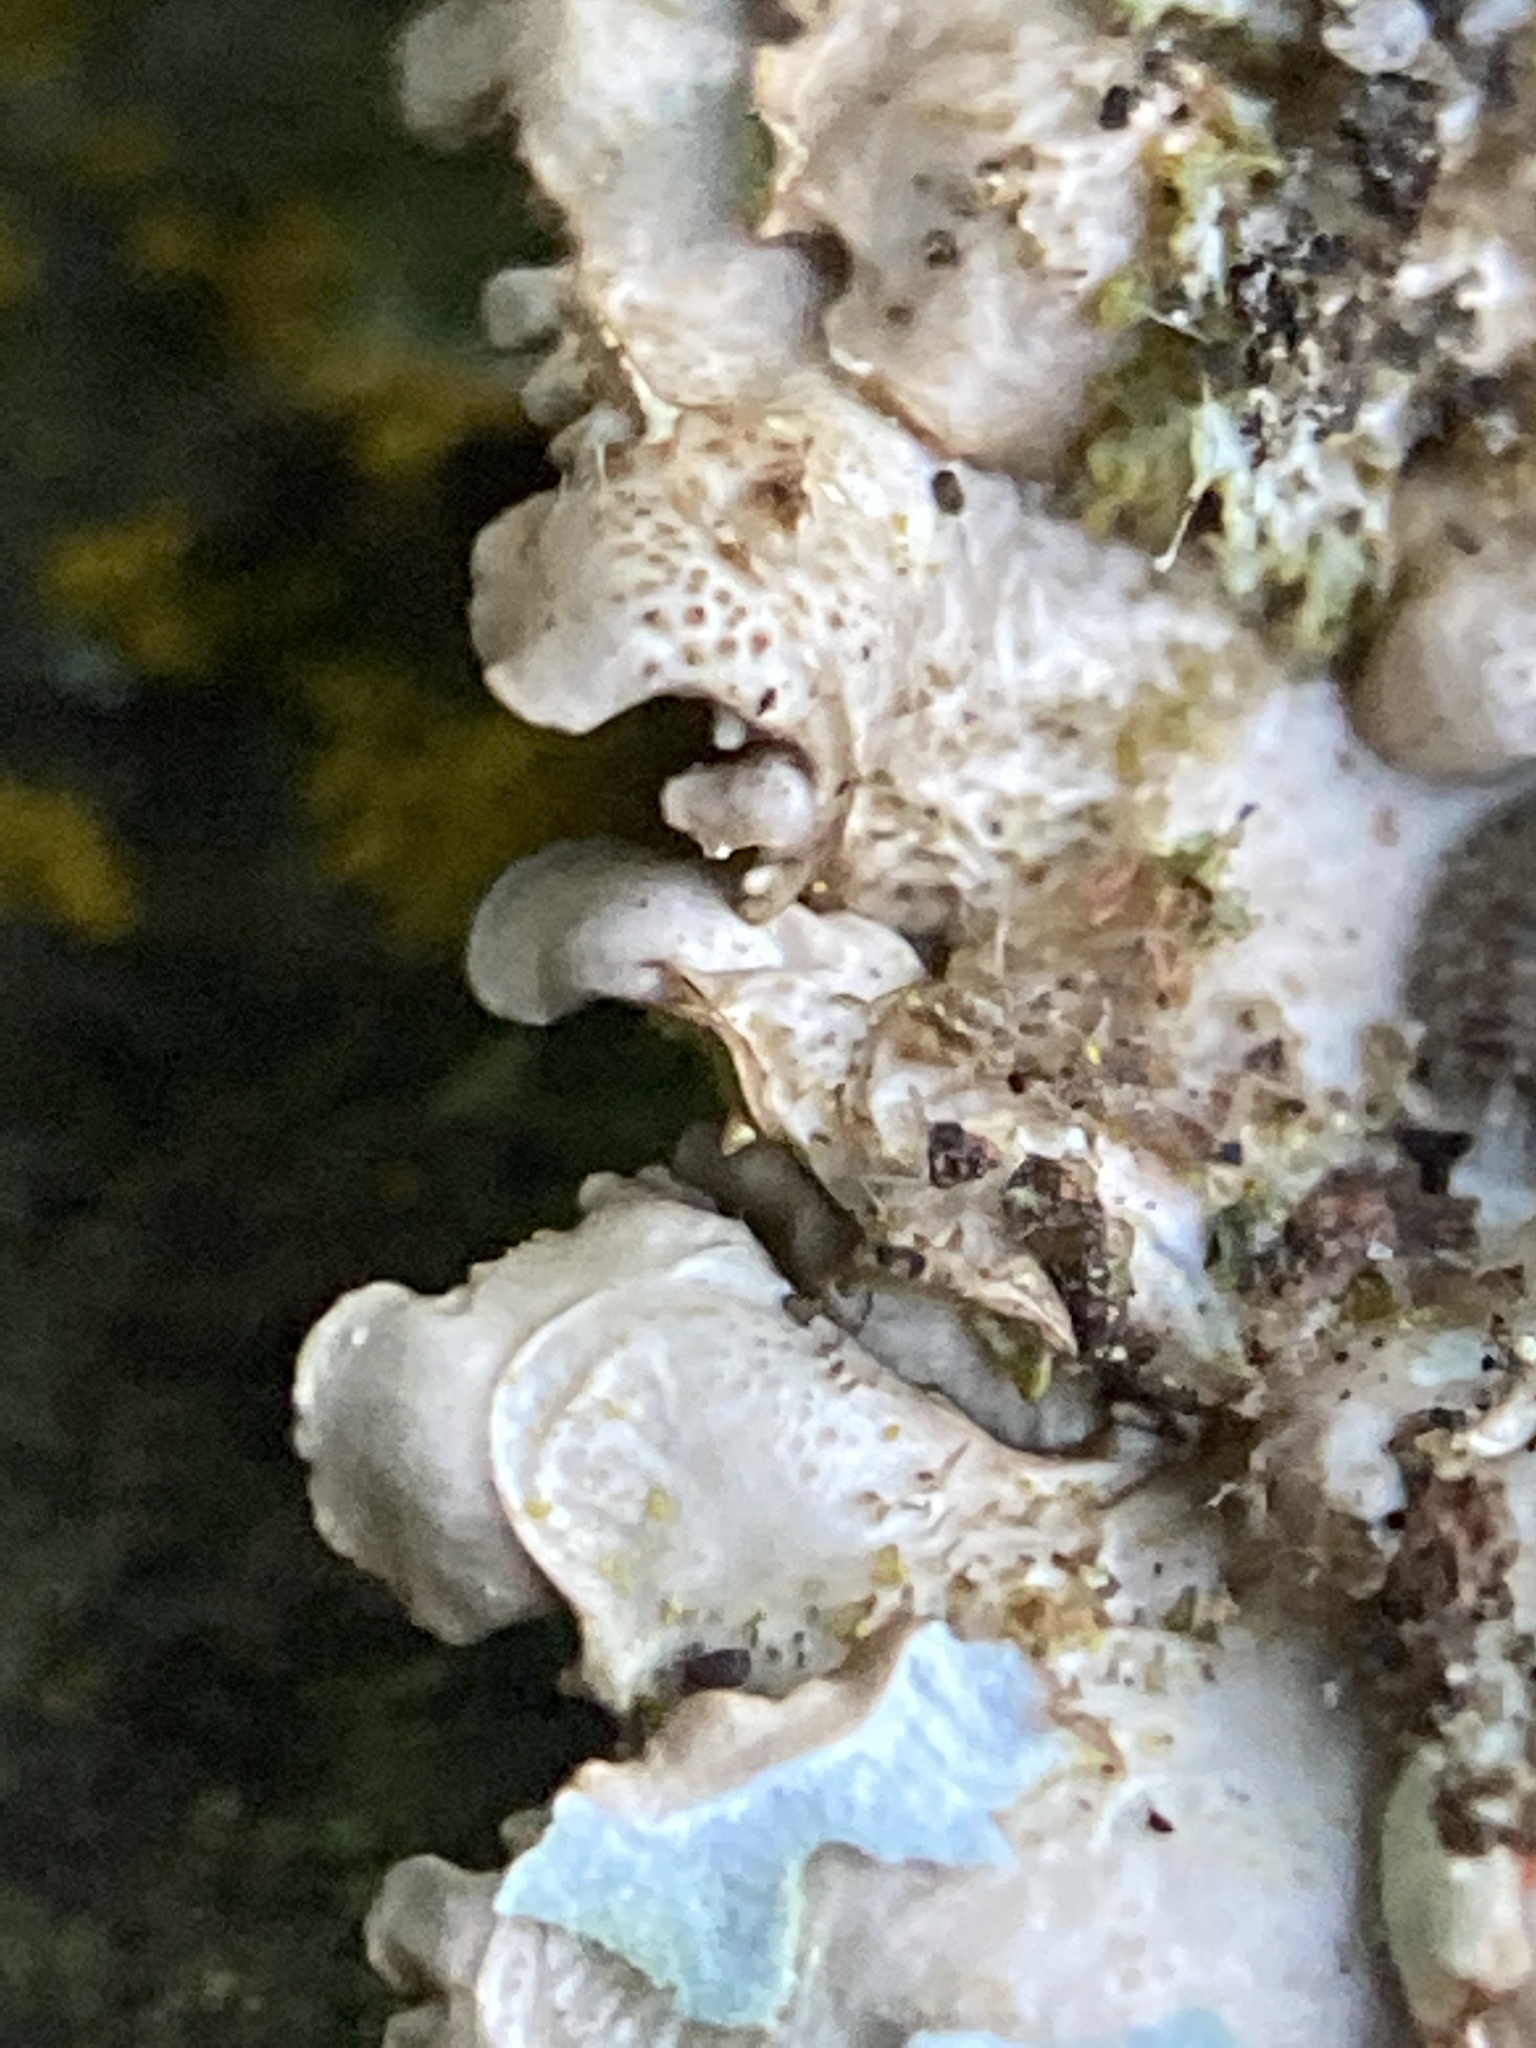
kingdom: Fungi
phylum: Ascomycota
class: Lecanoromycetes
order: Lecanorales
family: Parmeliaceae
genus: Punctelia
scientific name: Punctelia rudecta
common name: Rough speckled shield lichen
